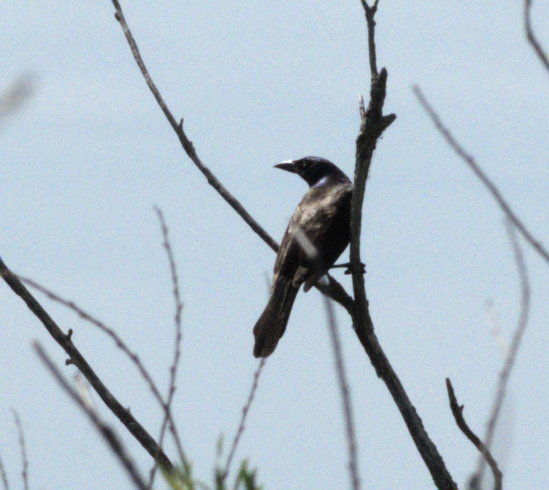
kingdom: Animalia
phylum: Chordata
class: Aves
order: Passeriformes
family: Icteridae
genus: Quiscalus
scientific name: Quiscalus quiscula
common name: Common grackle
